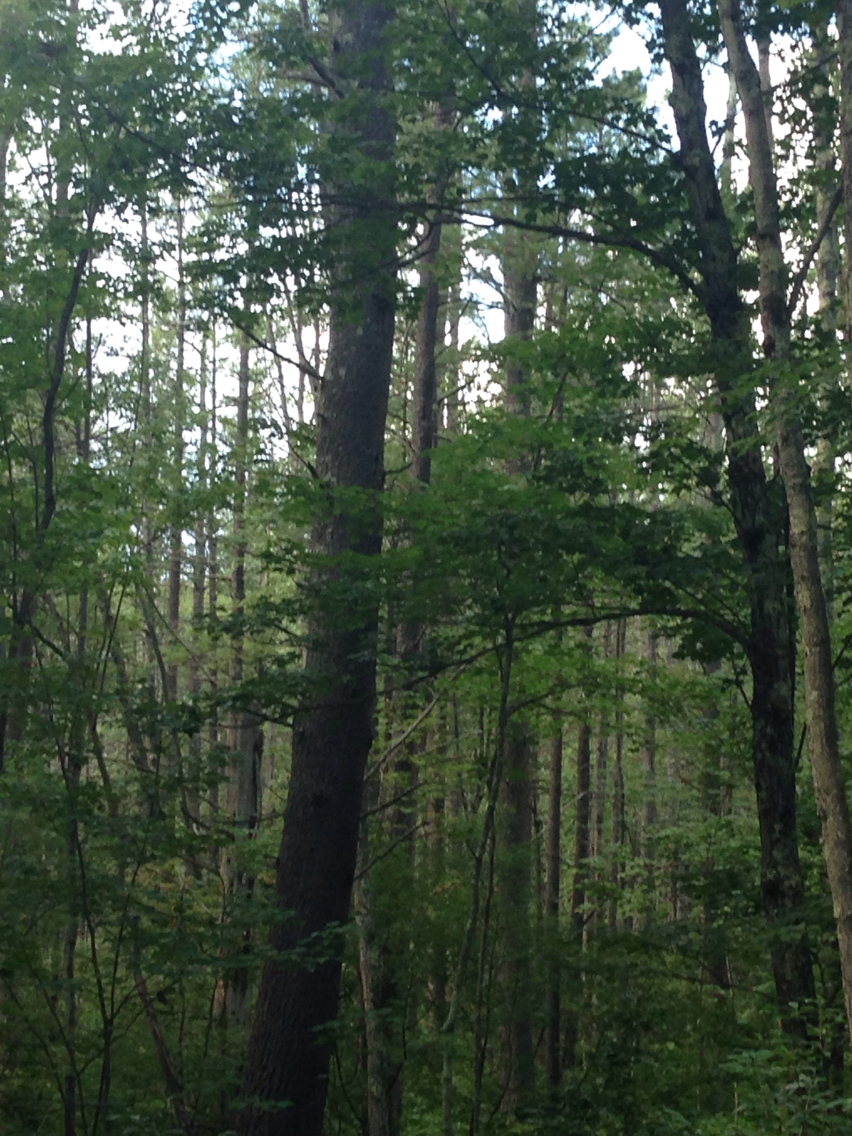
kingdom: Plantae
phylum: Tracheophyta
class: Pinopsida
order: Pinales
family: Pinaceae
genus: Pinus
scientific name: Pinus strobus
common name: Weymouth pine
